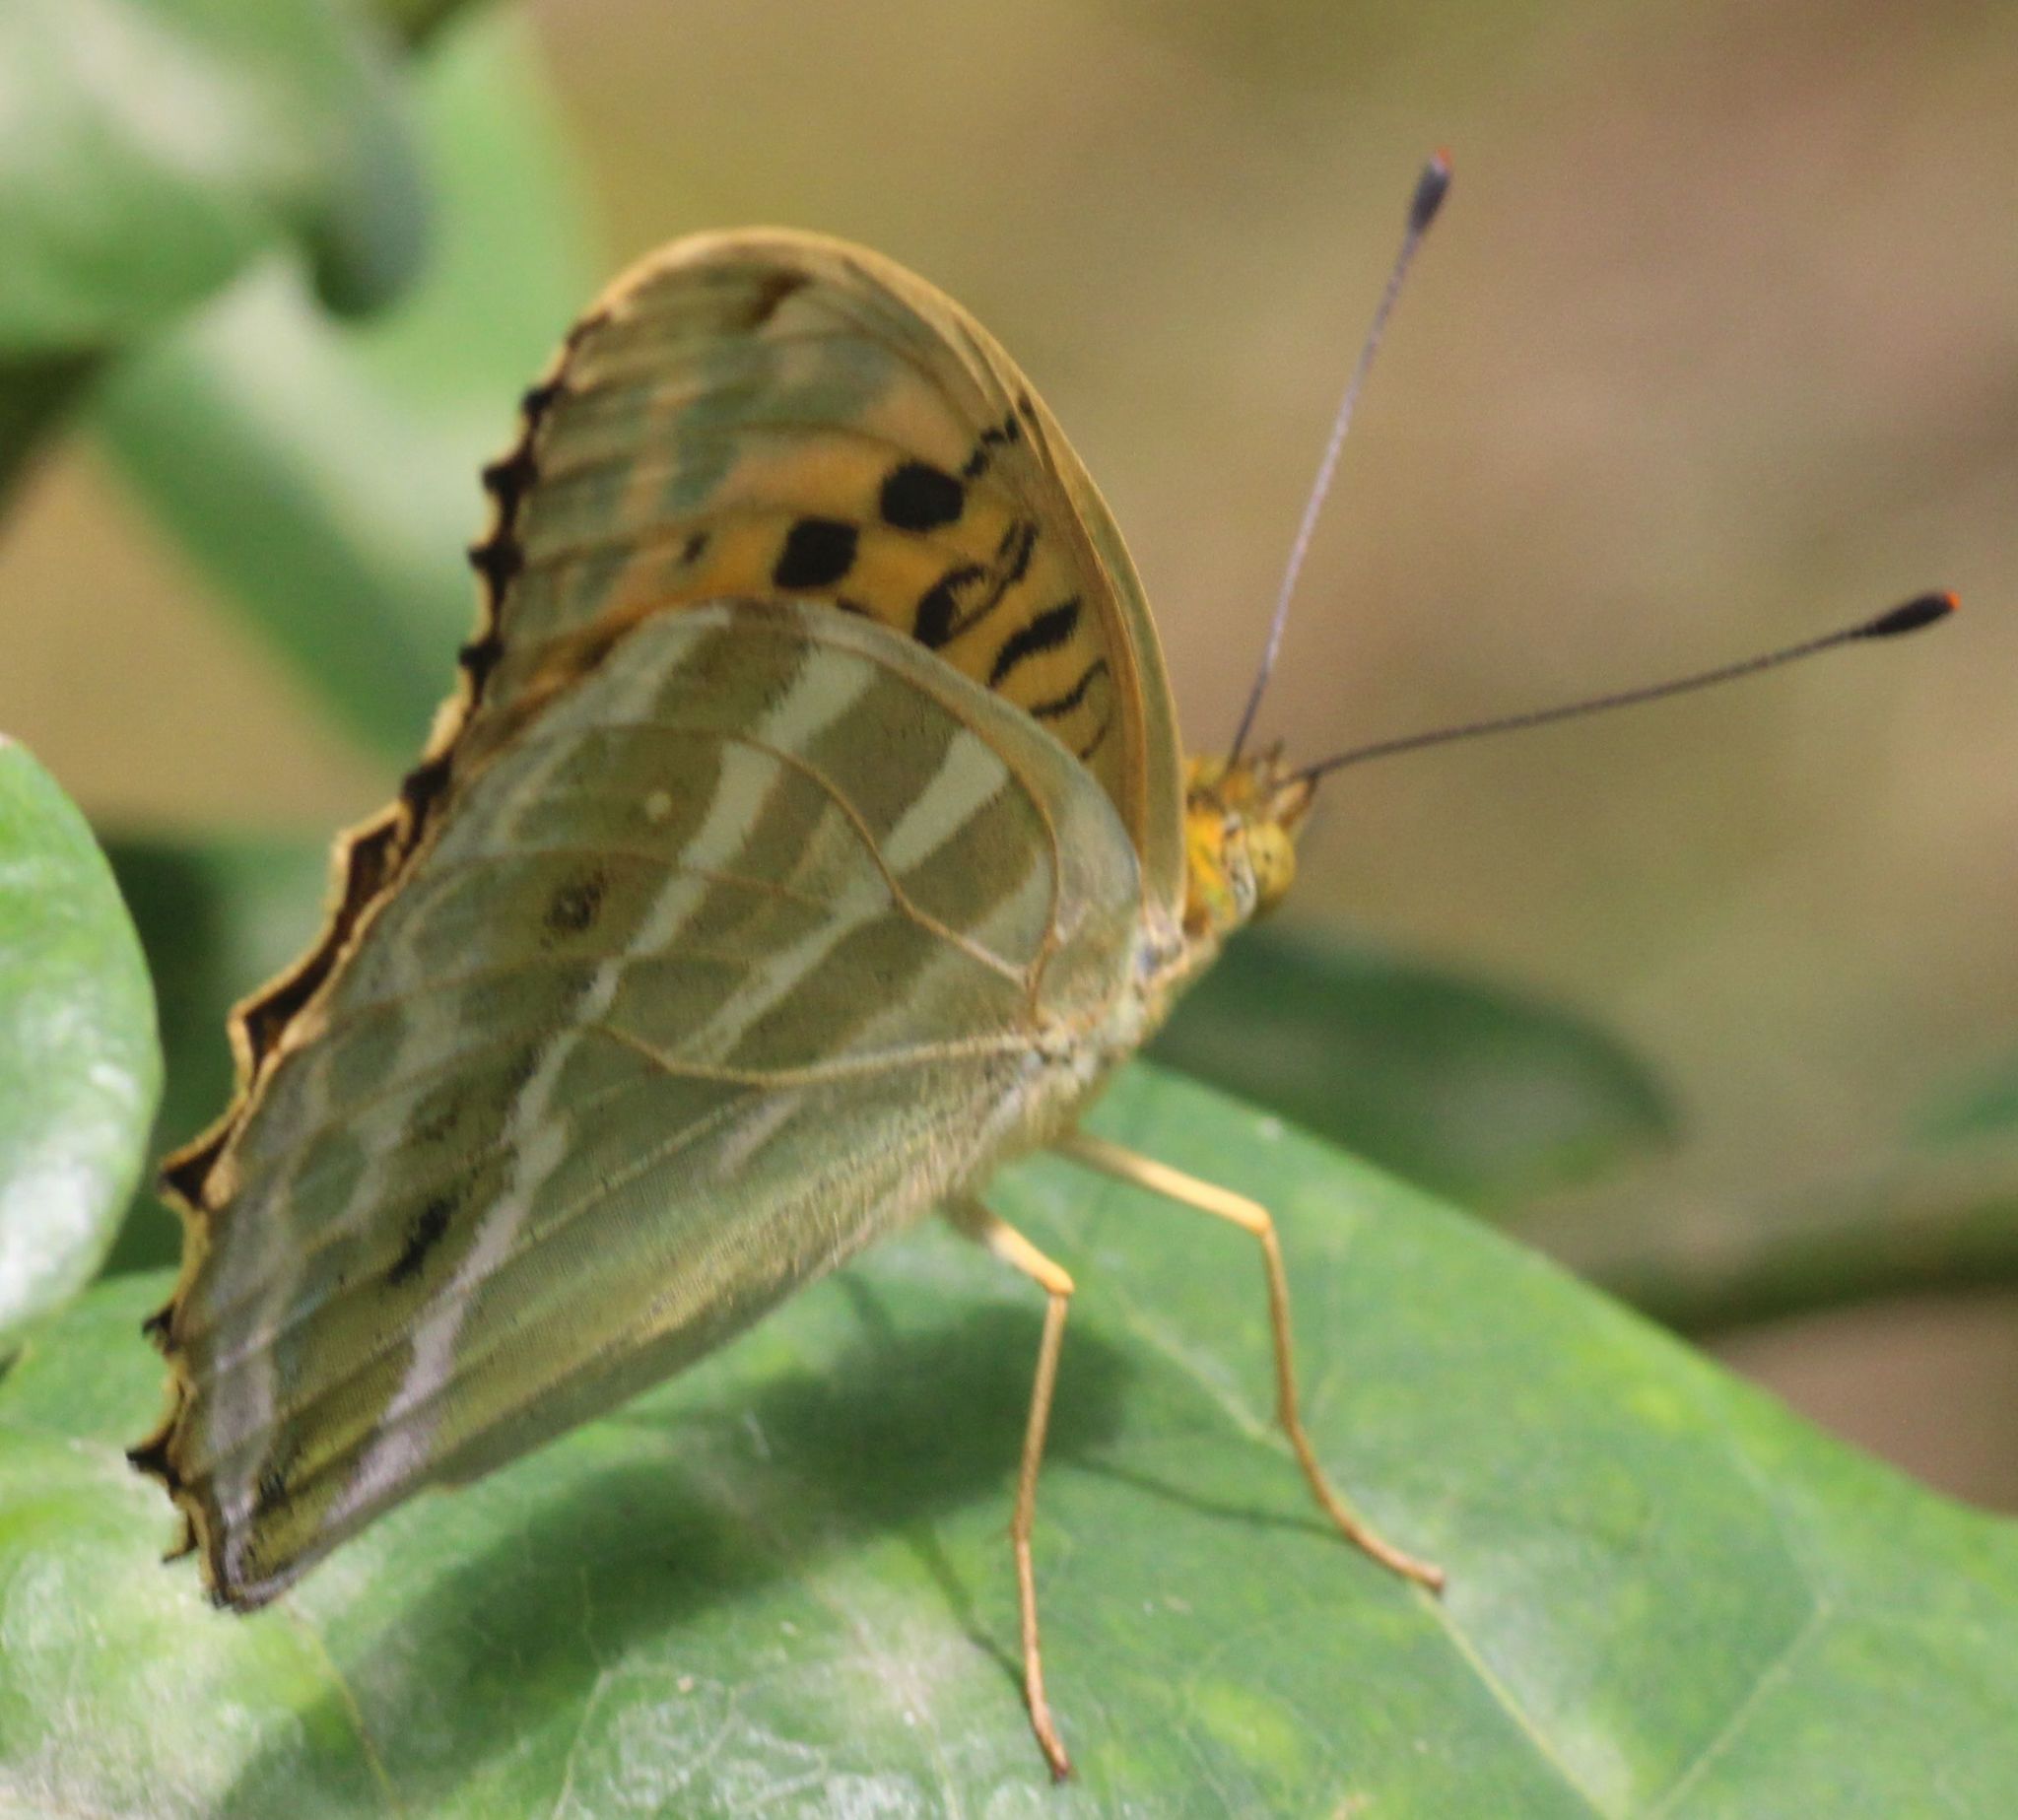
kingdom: Animalia
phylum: Arthropoda
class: Insecta
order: Lepidoptera
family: Nymphalidae
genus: Argynnis
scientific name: Argynnis paphia
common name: Silver-washed fritillary
